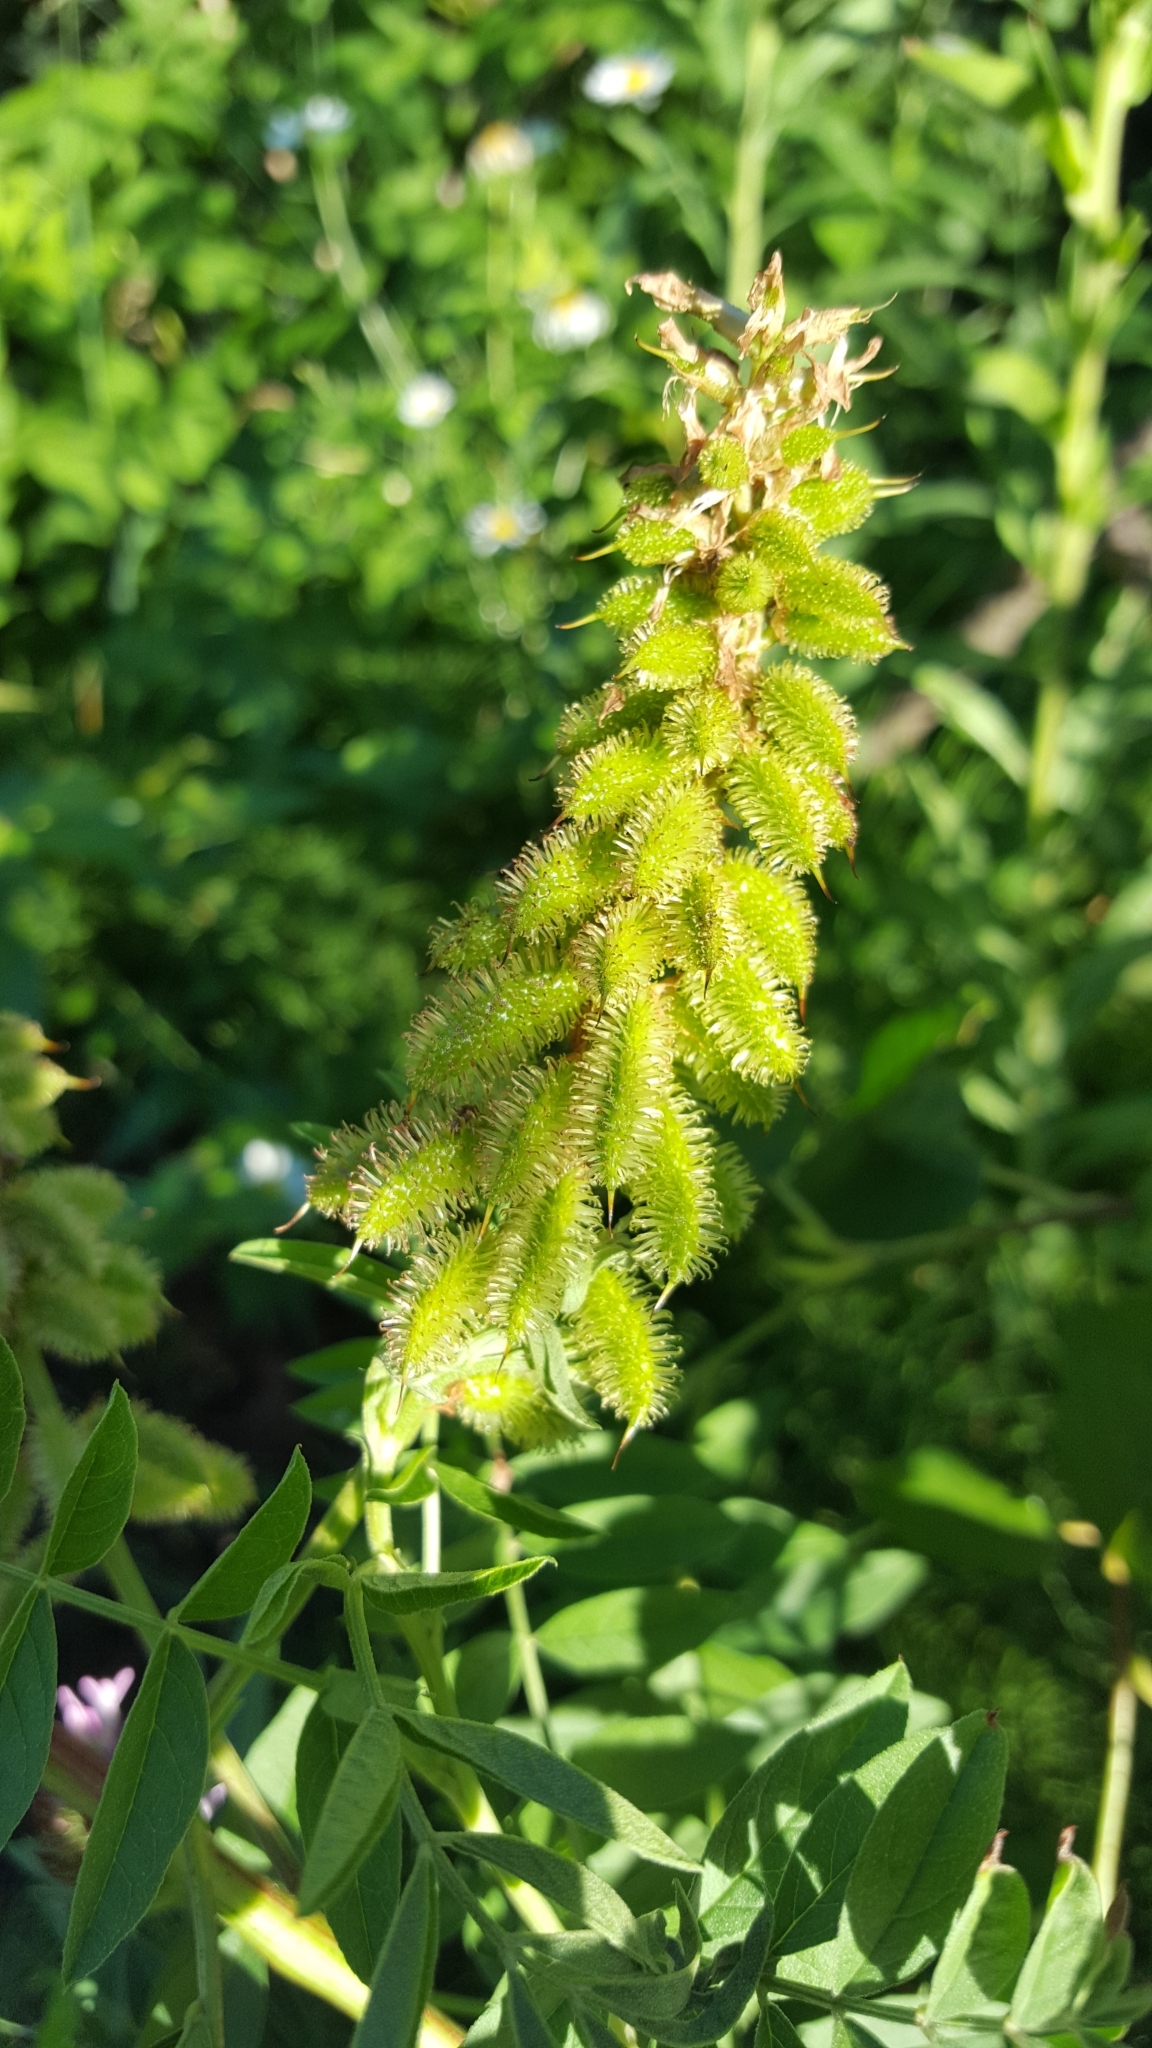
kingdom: Plantae
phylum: Tracheophyta
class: Magnoliopsida
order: Fabales
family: Fabaceae
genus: Glycyrrhiza
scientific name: Glycyrrhiza lepidota
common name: American liquorice
